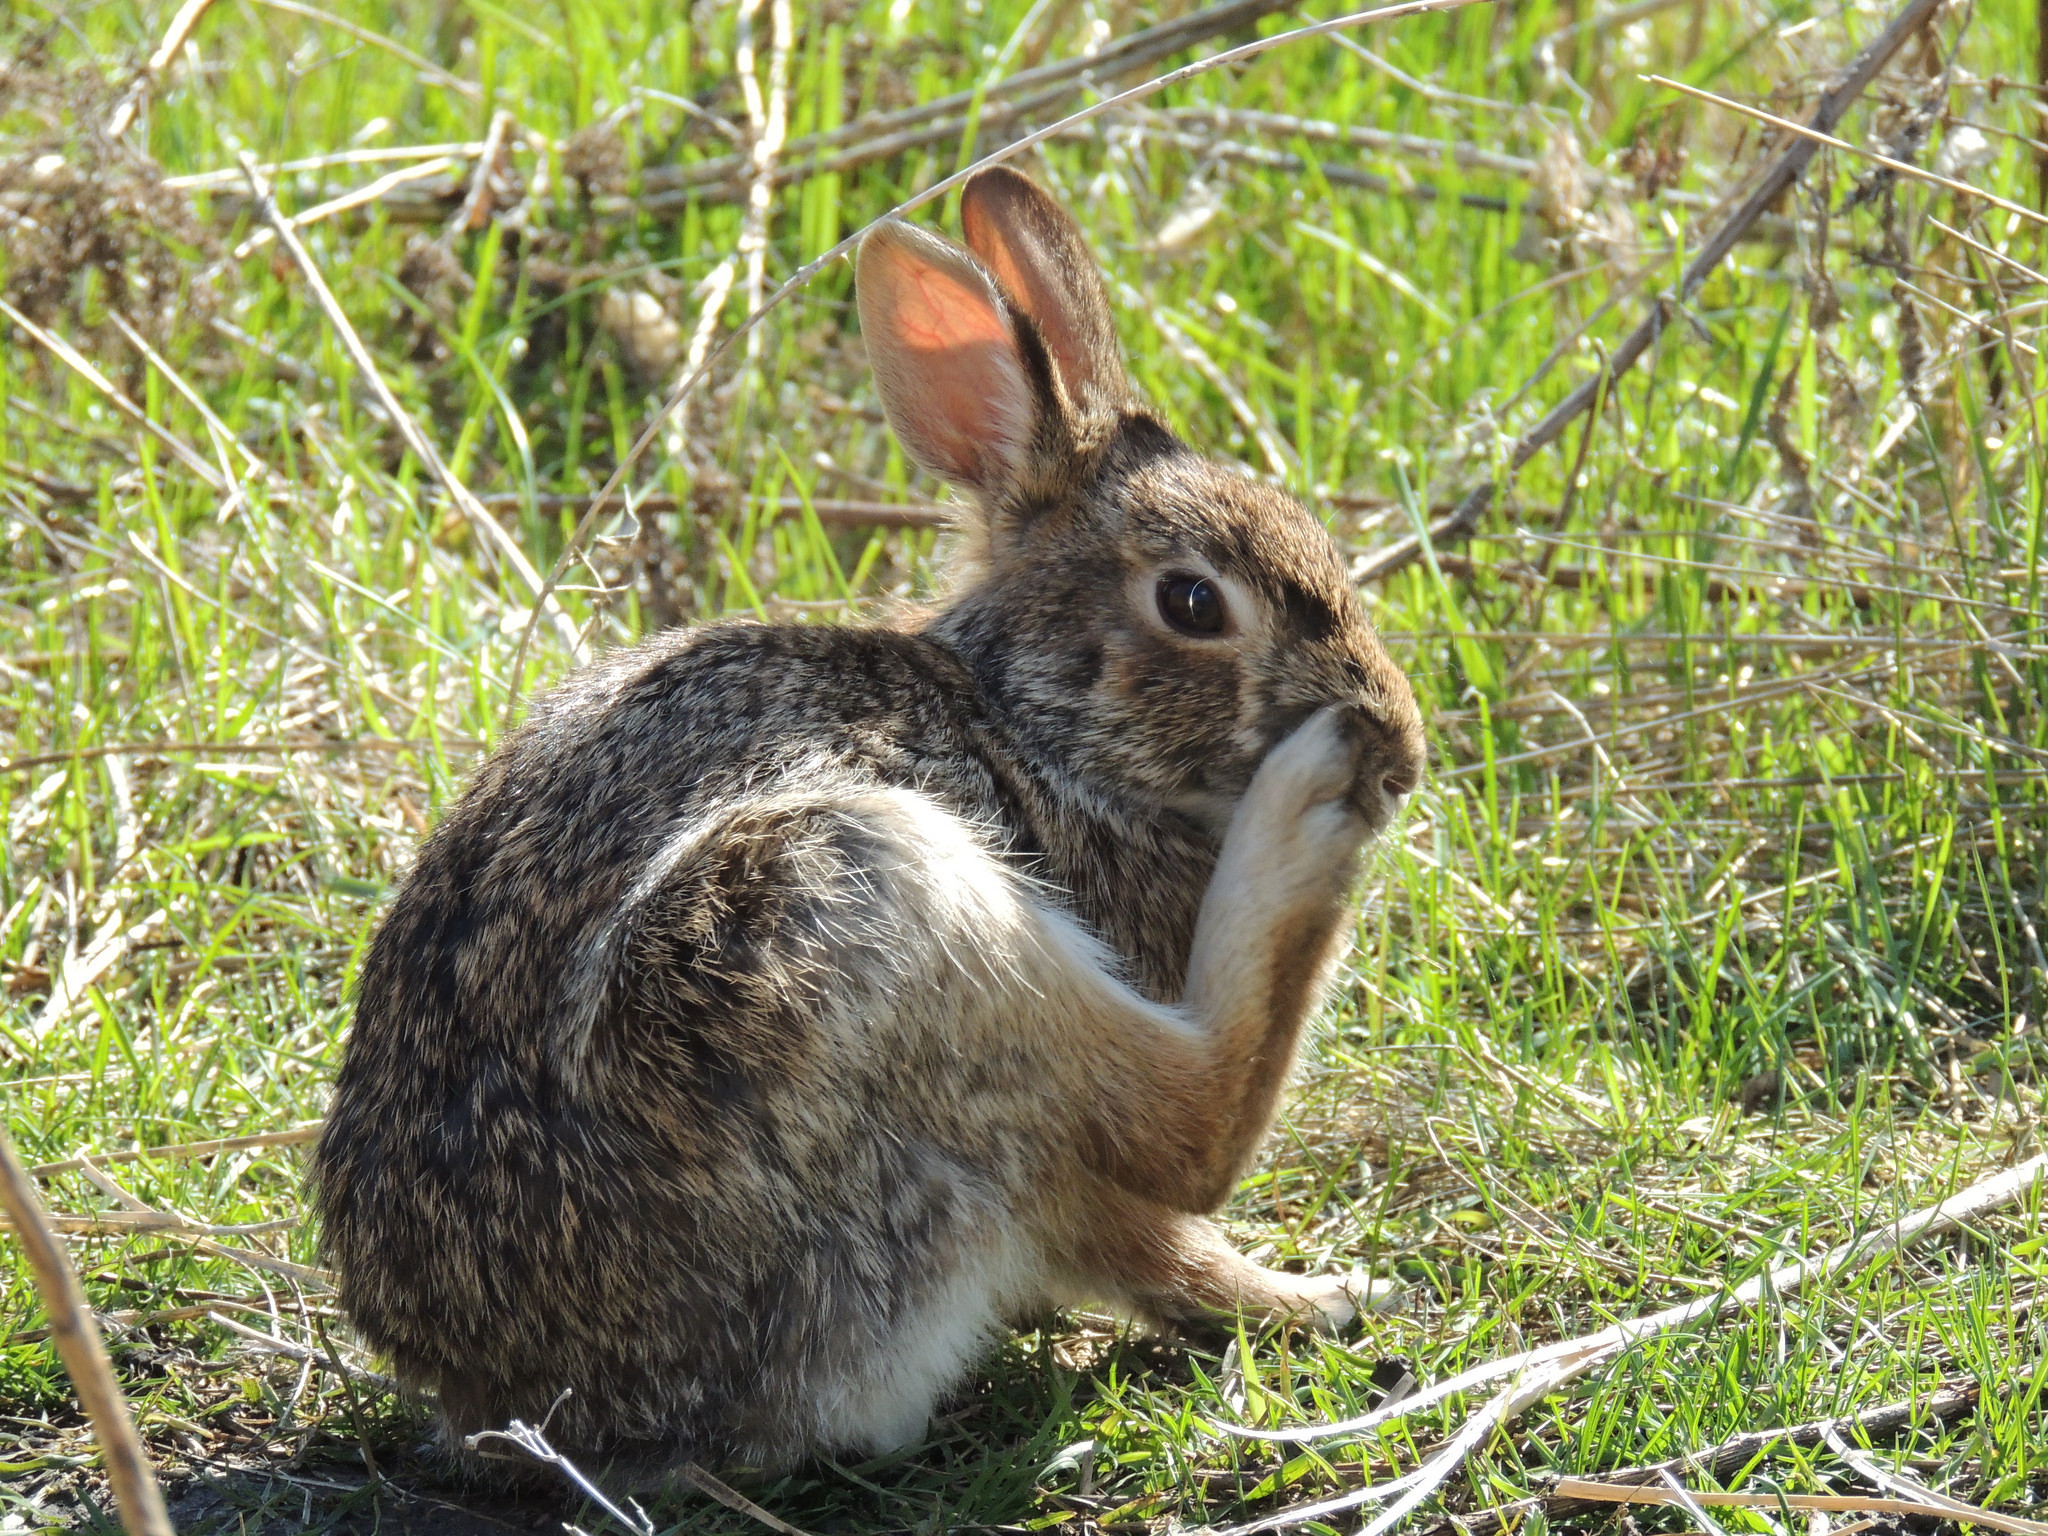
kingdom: Animalia
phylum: Chordata
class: Mammalia
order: Lagomorpha
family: Leporidae
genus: Sylvilagus
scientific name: Sylvilagus floridanus
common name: Eastern cottontail
